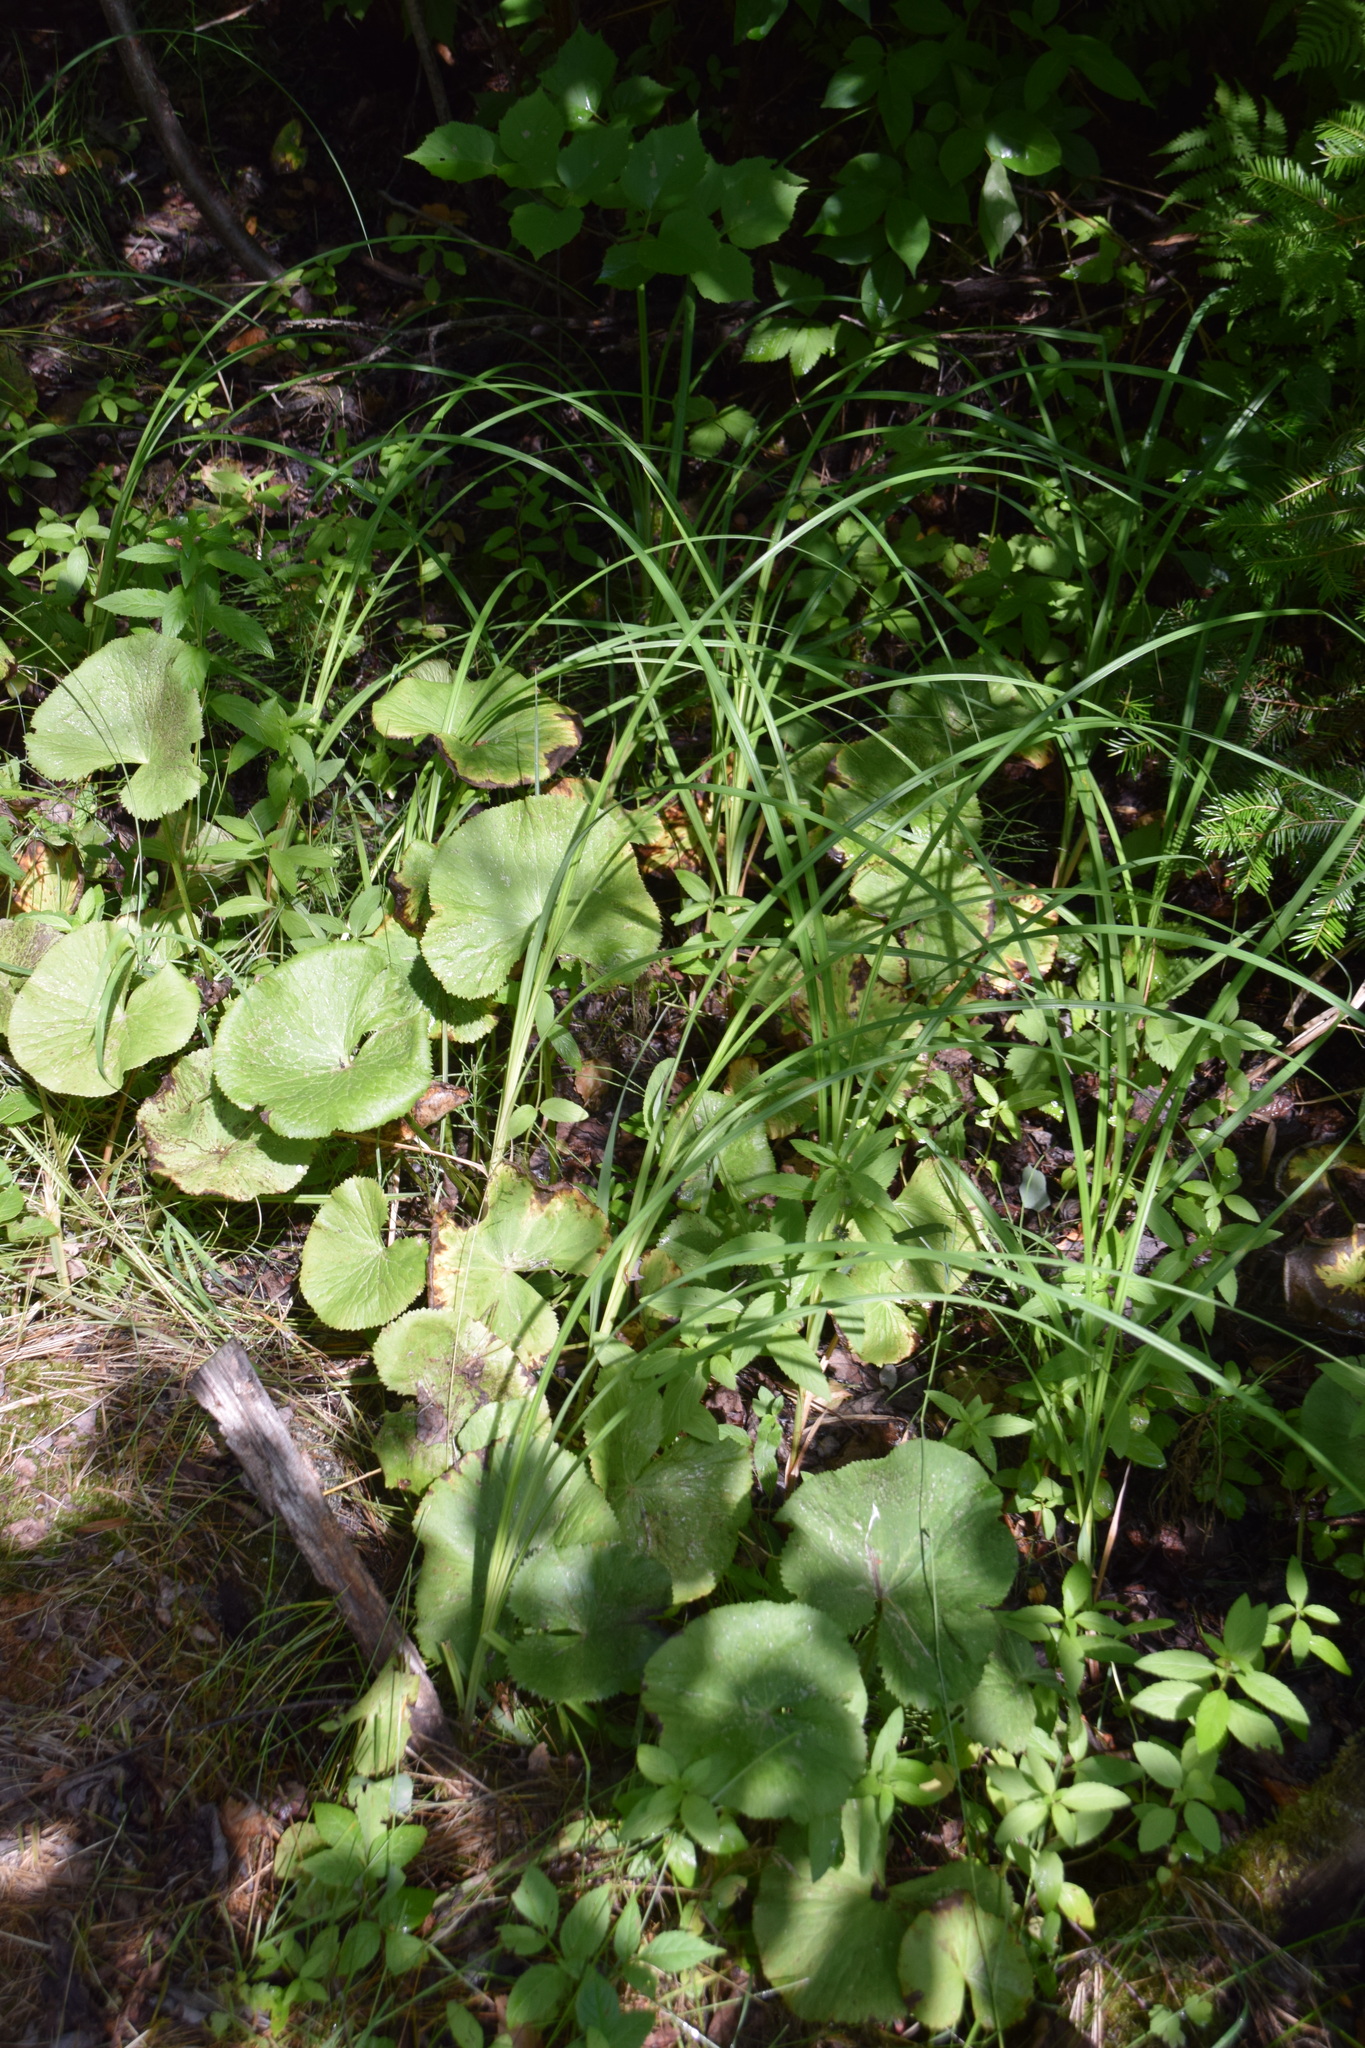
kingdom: Plantae
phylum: Tracheophyta
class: Magnoliopsida
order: Ranunculales
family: Ranunculaceae
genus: Caltha
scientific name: Caltha palustris
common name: Marsh marigold
